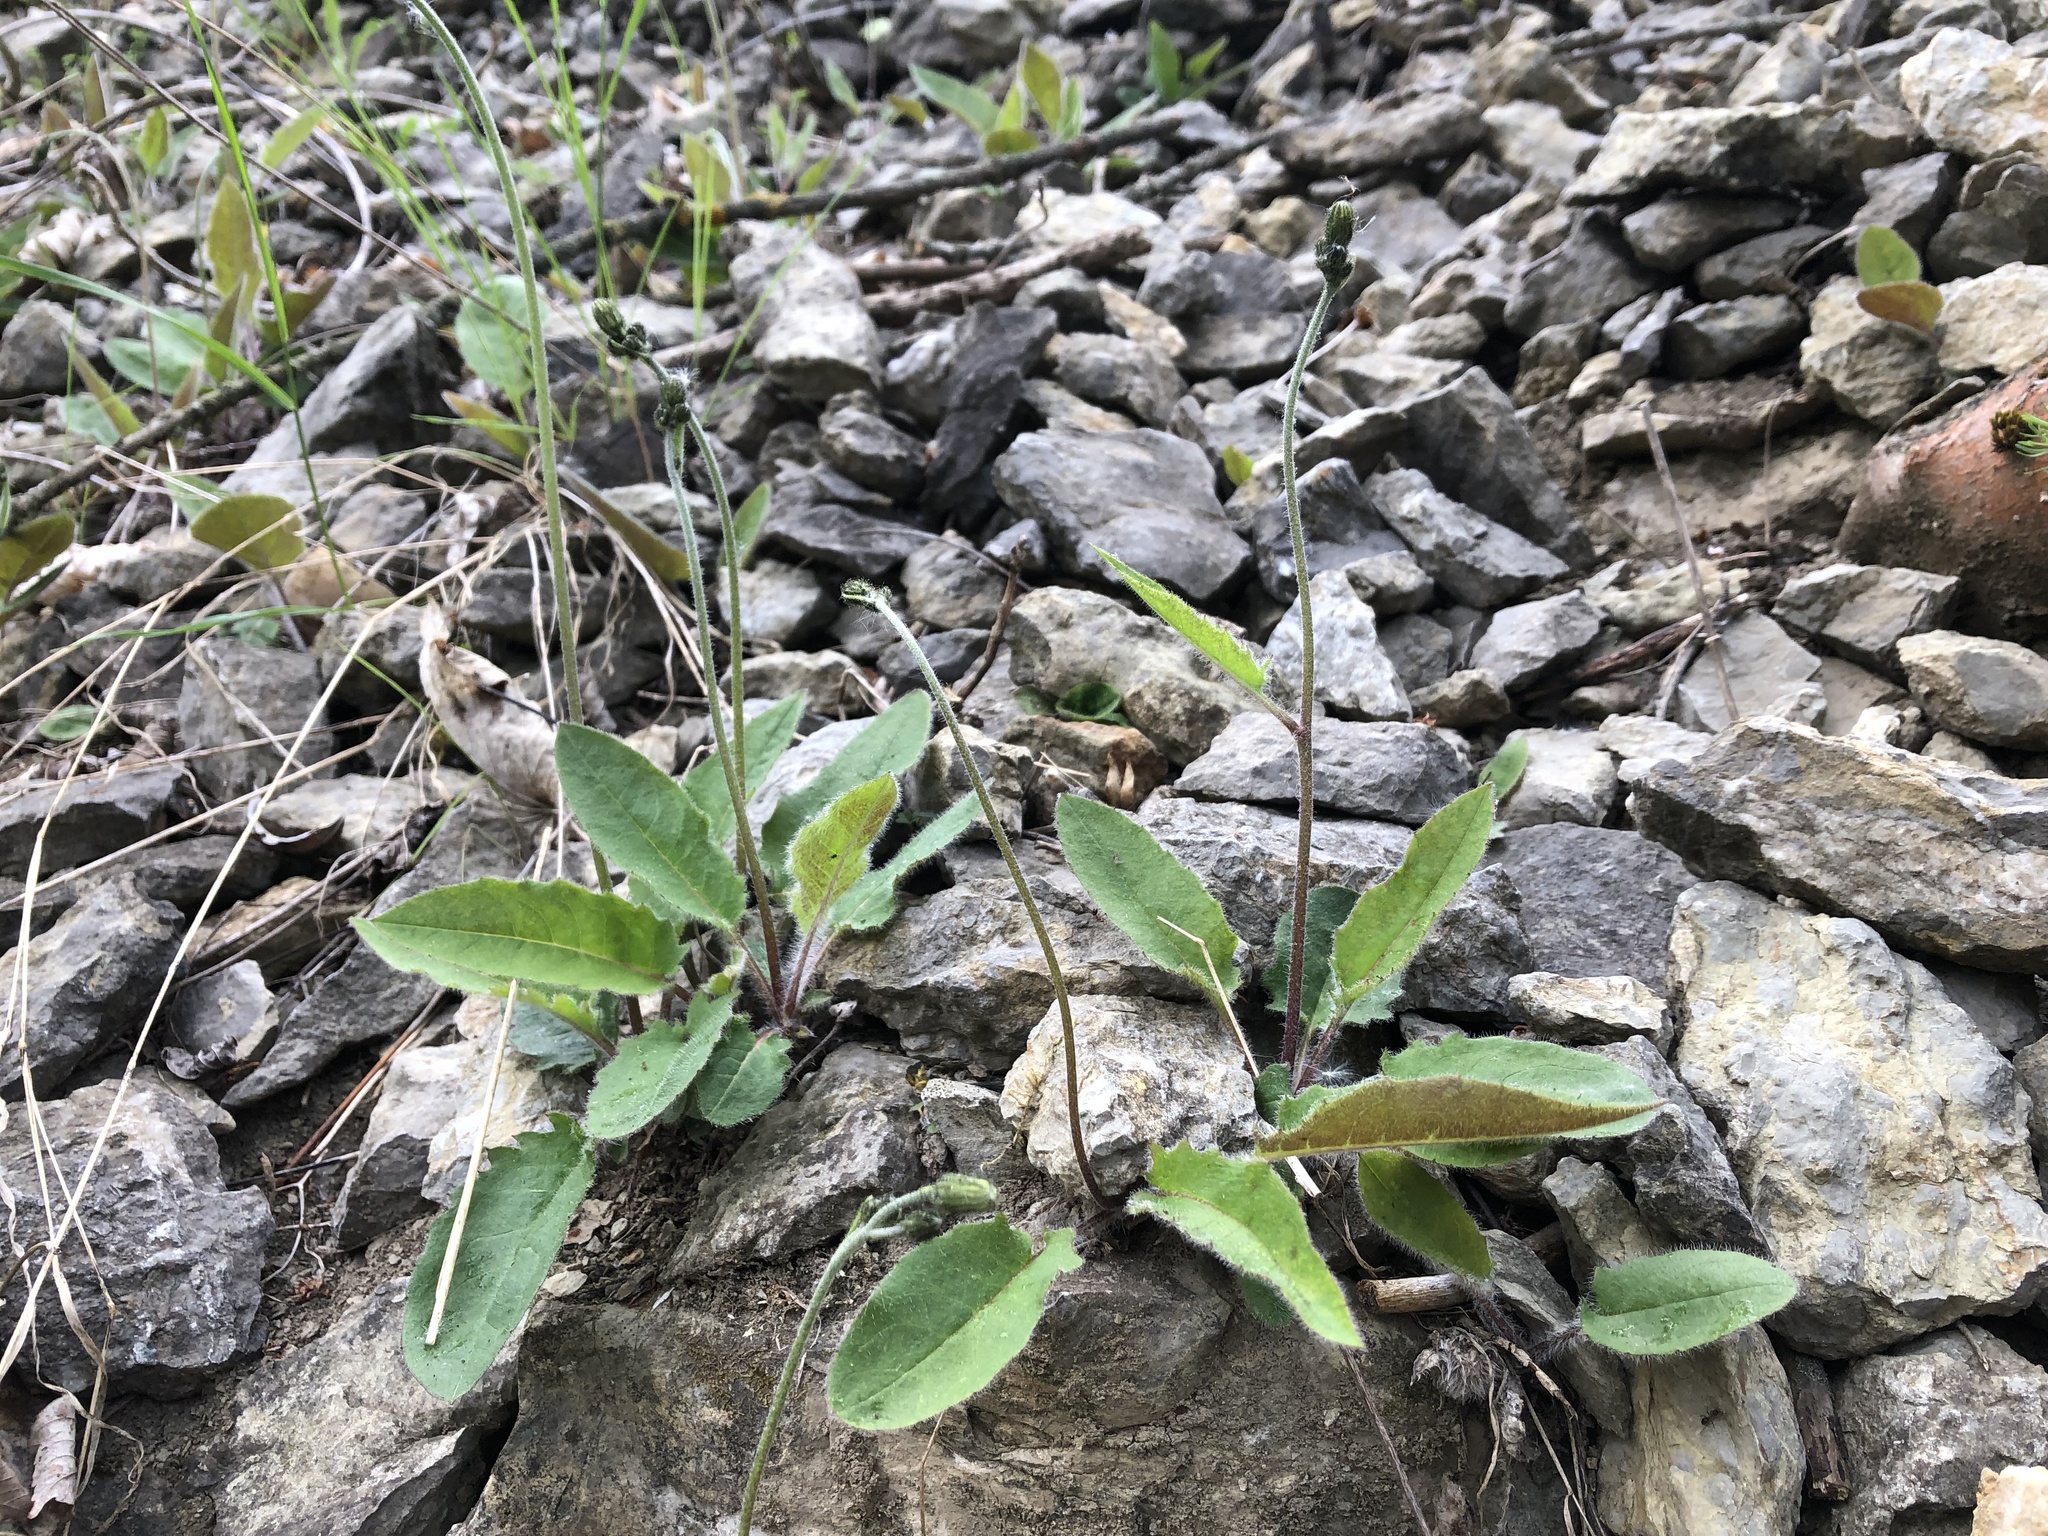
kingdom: Plantae
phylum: Tracheophyta
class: Magnoliopsida
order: Asterales
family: Asteraceae
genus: Hieracium
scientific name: Hieracium murorum
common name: Wall hawkweed
